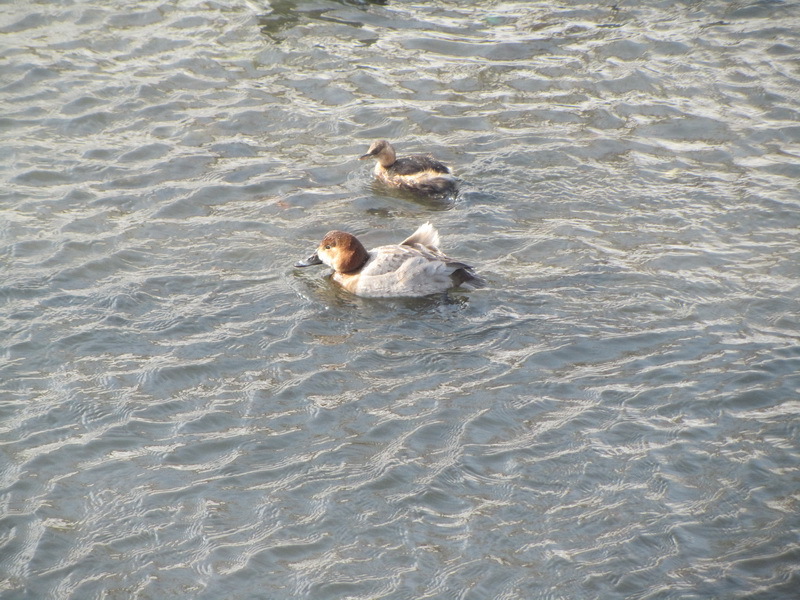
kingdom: Animalia
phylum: Chordata
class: Aves
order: Anseriformes
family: Anatidae
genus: Aythya
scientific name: Aythya ferina
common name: Common pochard
